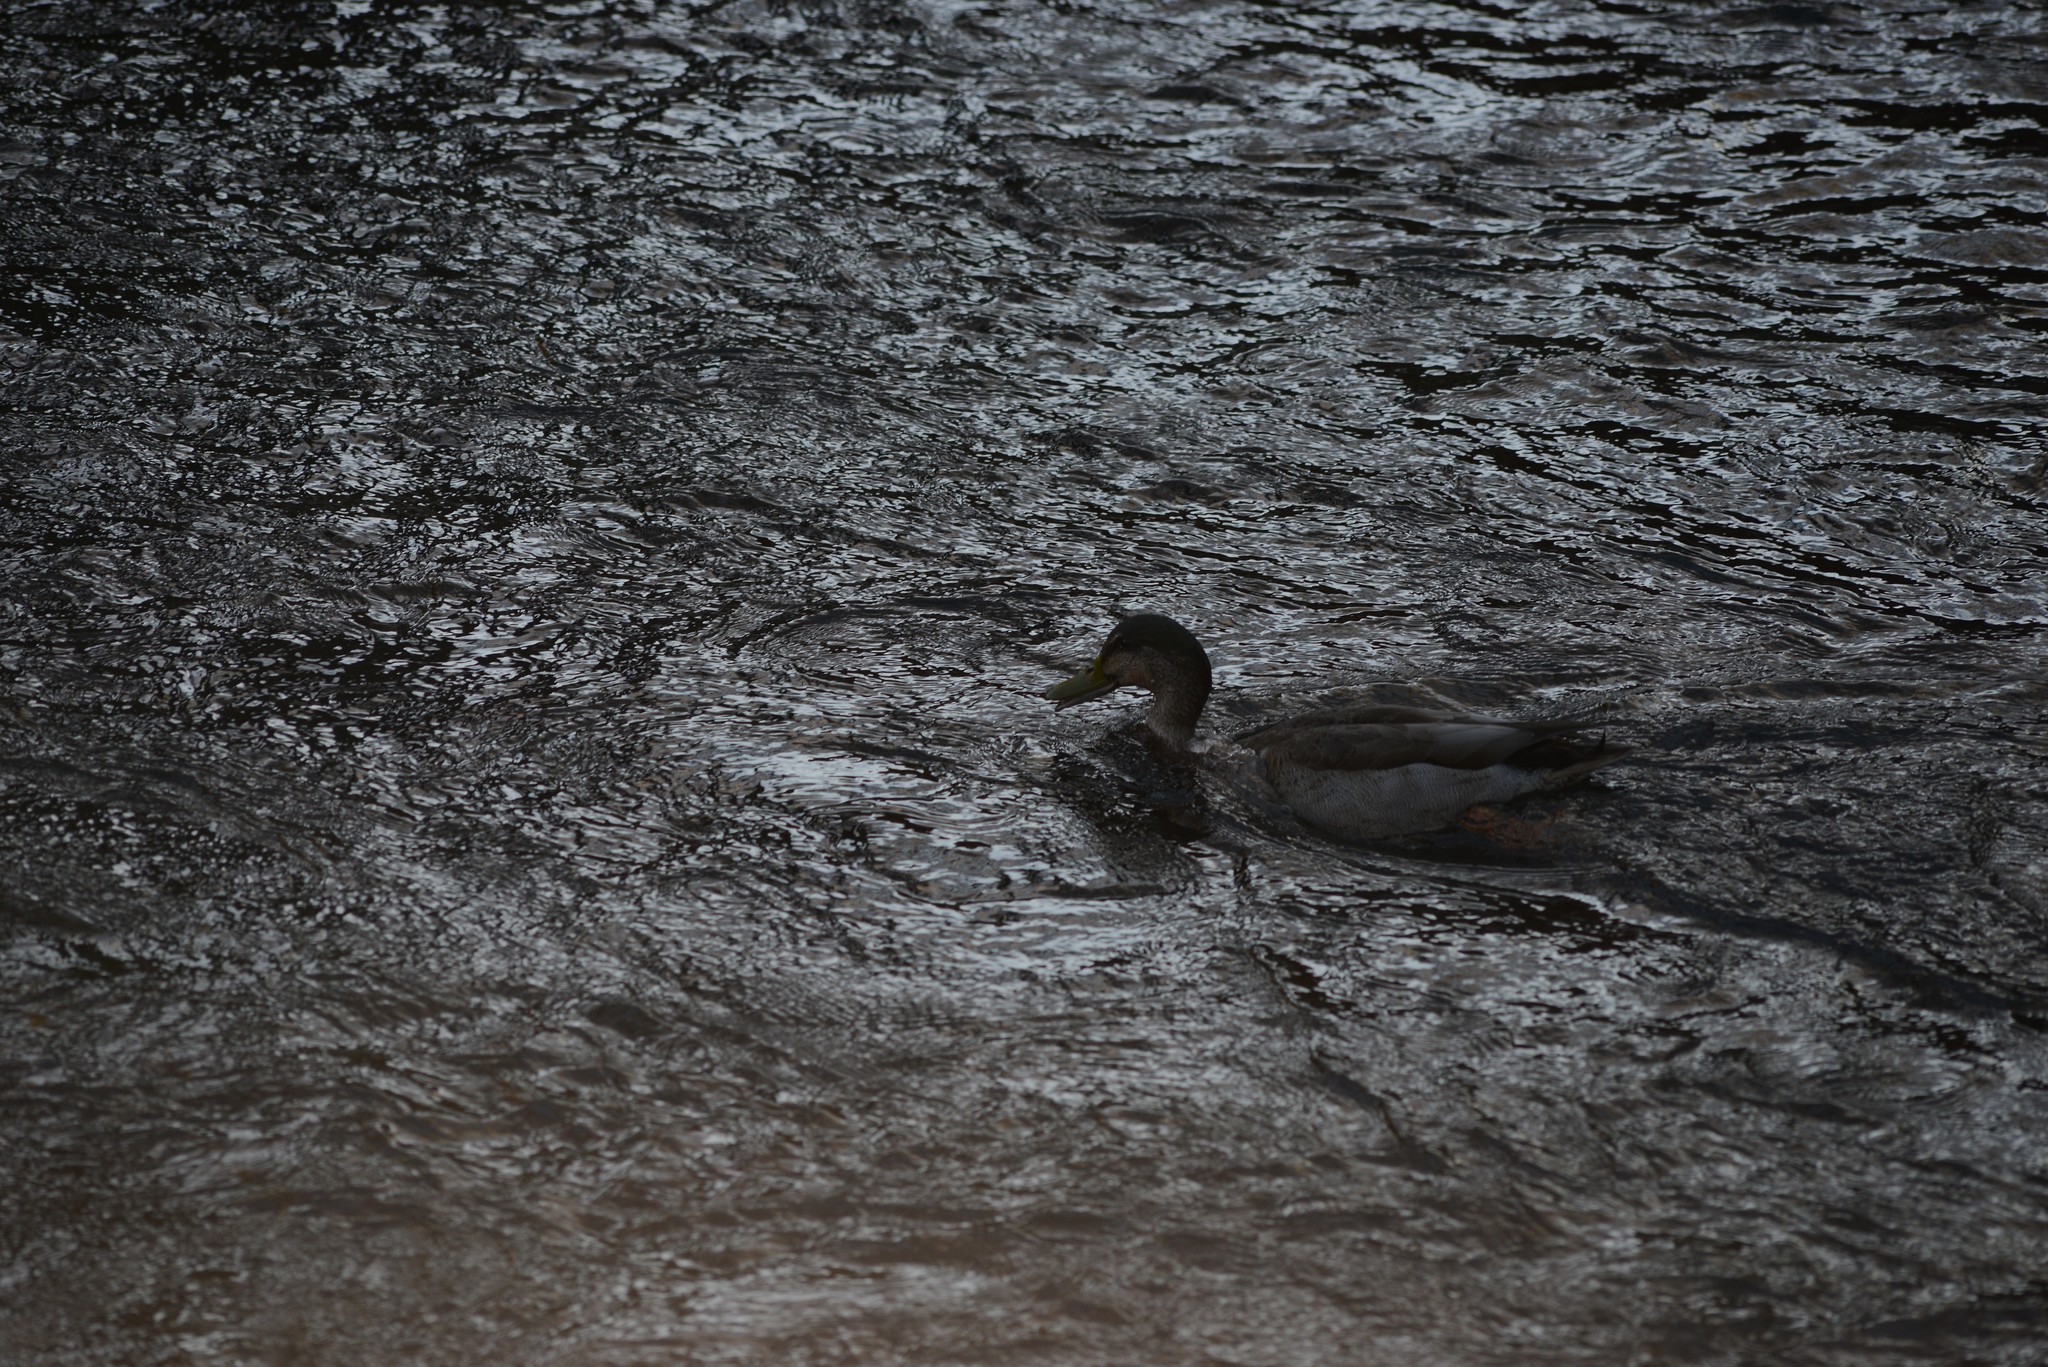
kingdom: Animalia
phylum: Chordata
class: Aves
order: Anseriformes
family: Anatidae
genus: Anas
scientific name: Anas platyrhynchos
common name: Mallard
